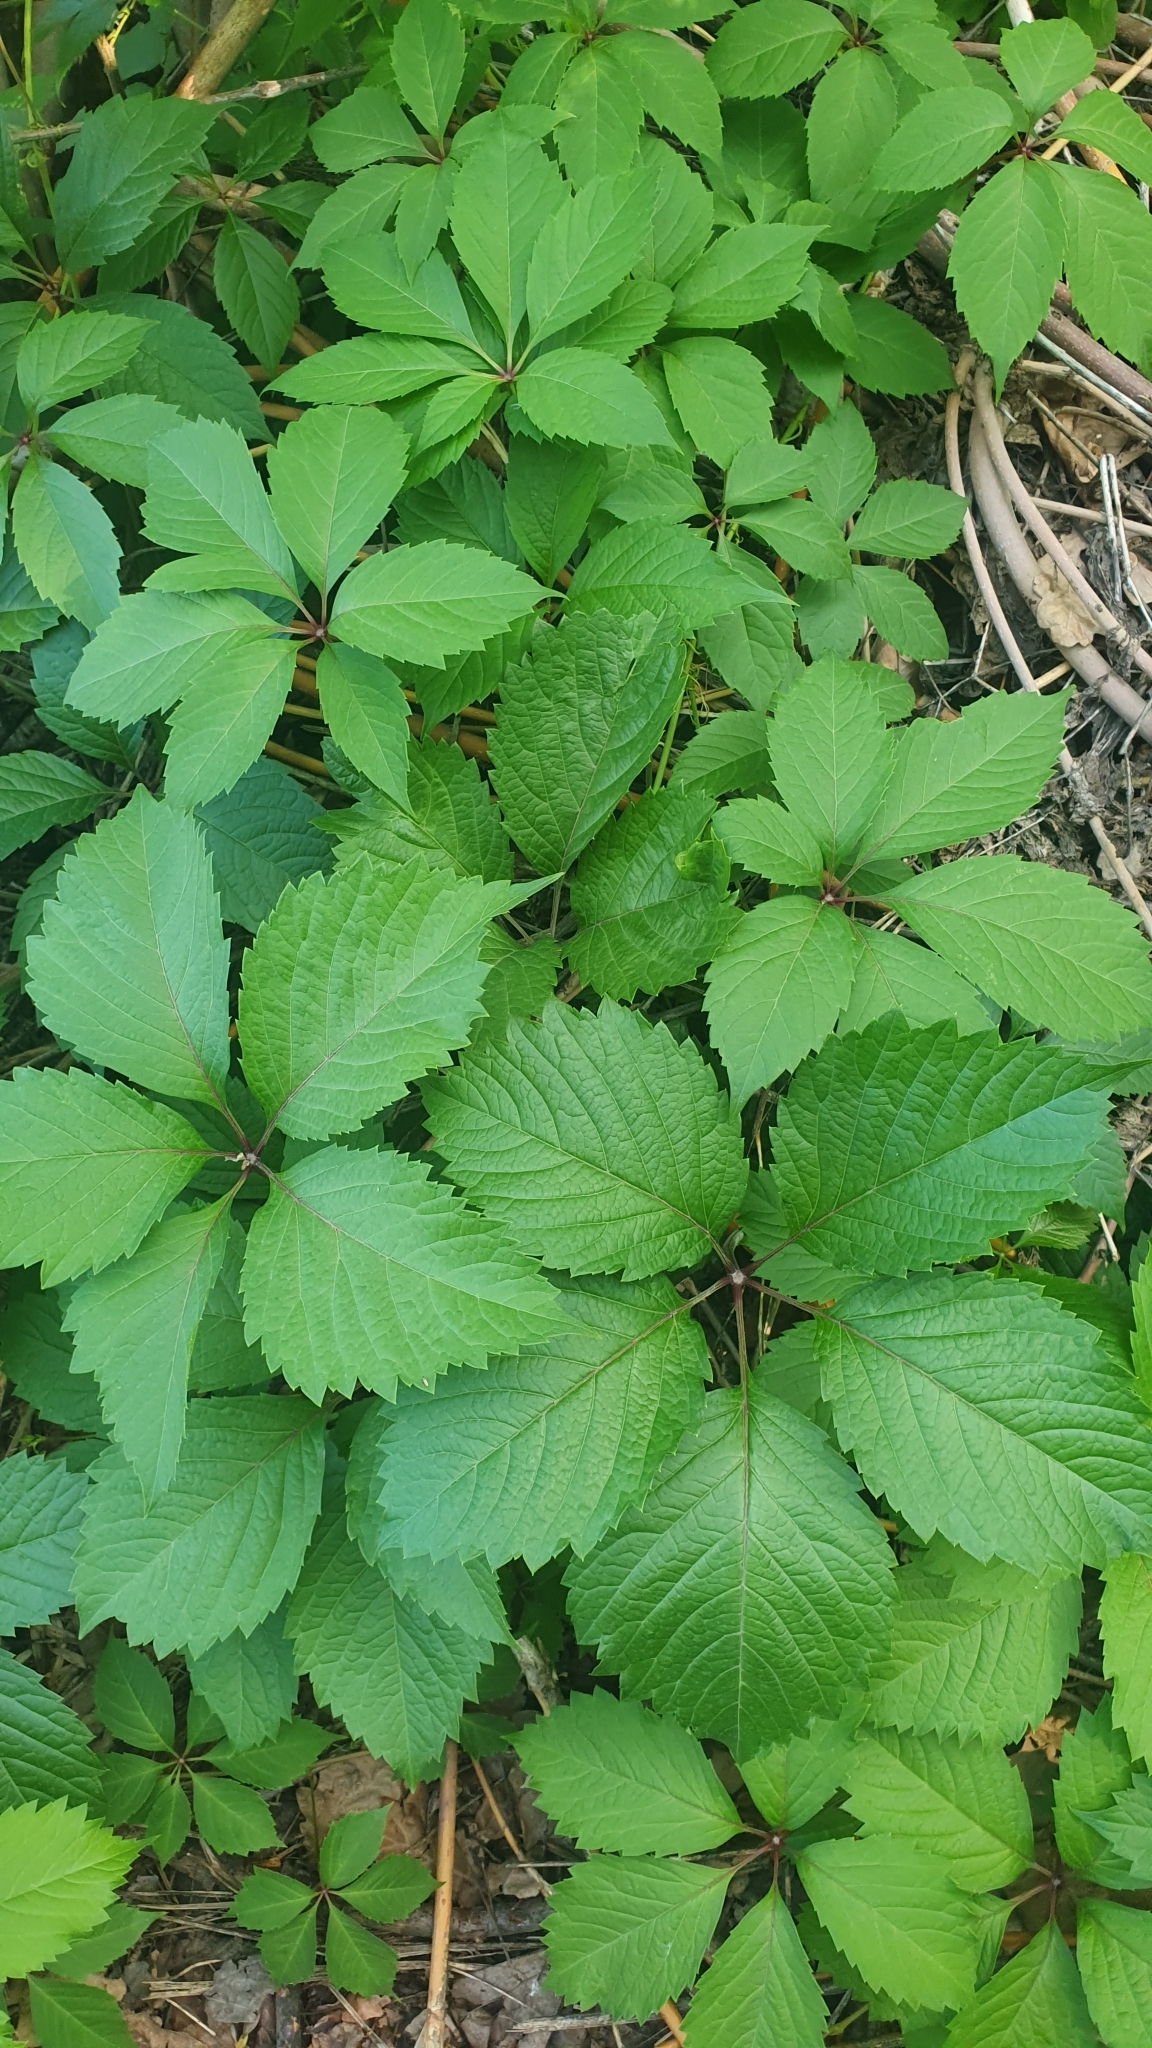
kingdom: Plantae
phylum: Tracheophyta
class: Magnoliopsida
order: Vitales
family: Vitaceae
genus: Parthenocissus
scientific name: Parthenocissus inserta
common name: False virginia-creeper
